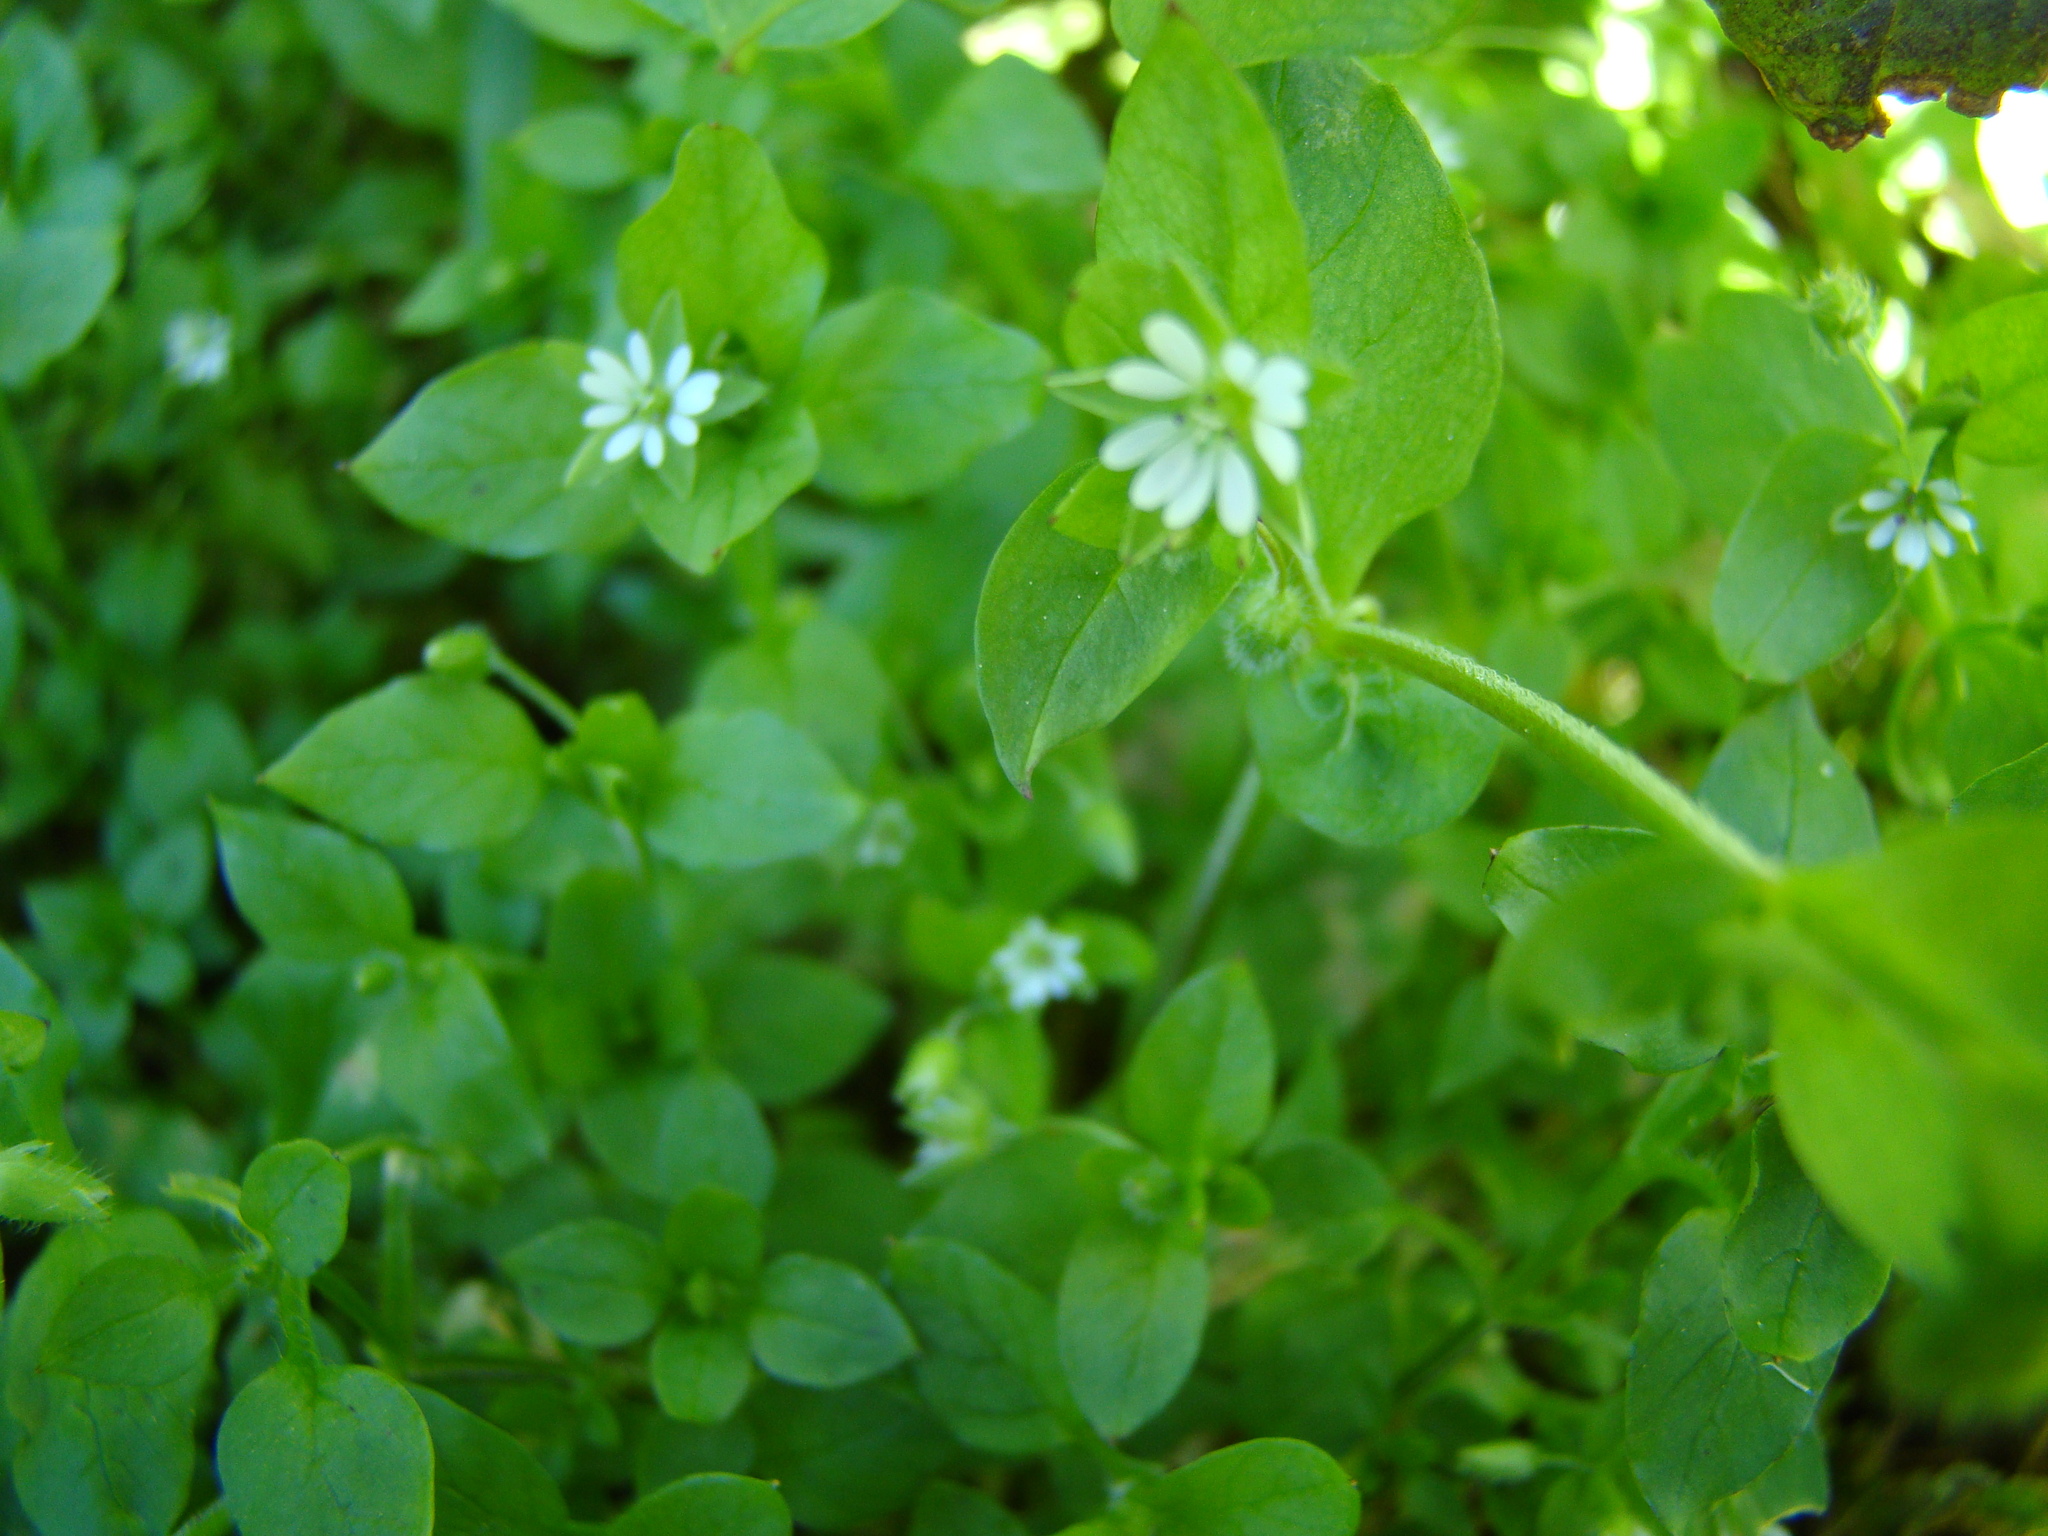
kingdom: Plantae
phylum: Tracheophyta
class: Magnoliopsida
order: Caryophyllales
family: Caryophyllaceae
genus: Stellaria
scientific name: Stellaria media
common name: Common chickweed
